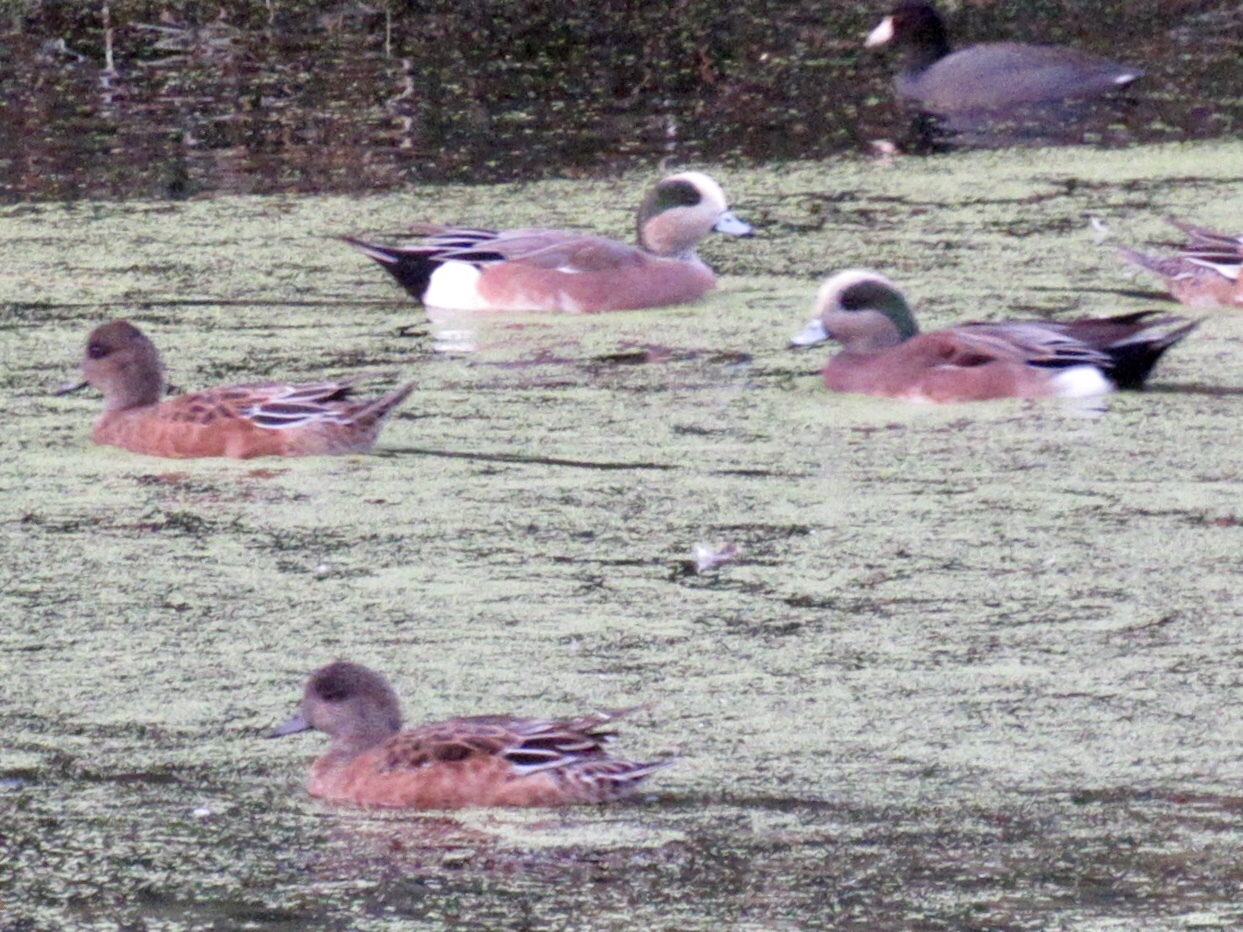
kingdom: Animalia
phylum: Chordata
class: Aves
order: Anseriformes
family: Anatidae
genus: Mareca
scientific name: Mareca americana
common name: American wigeon
